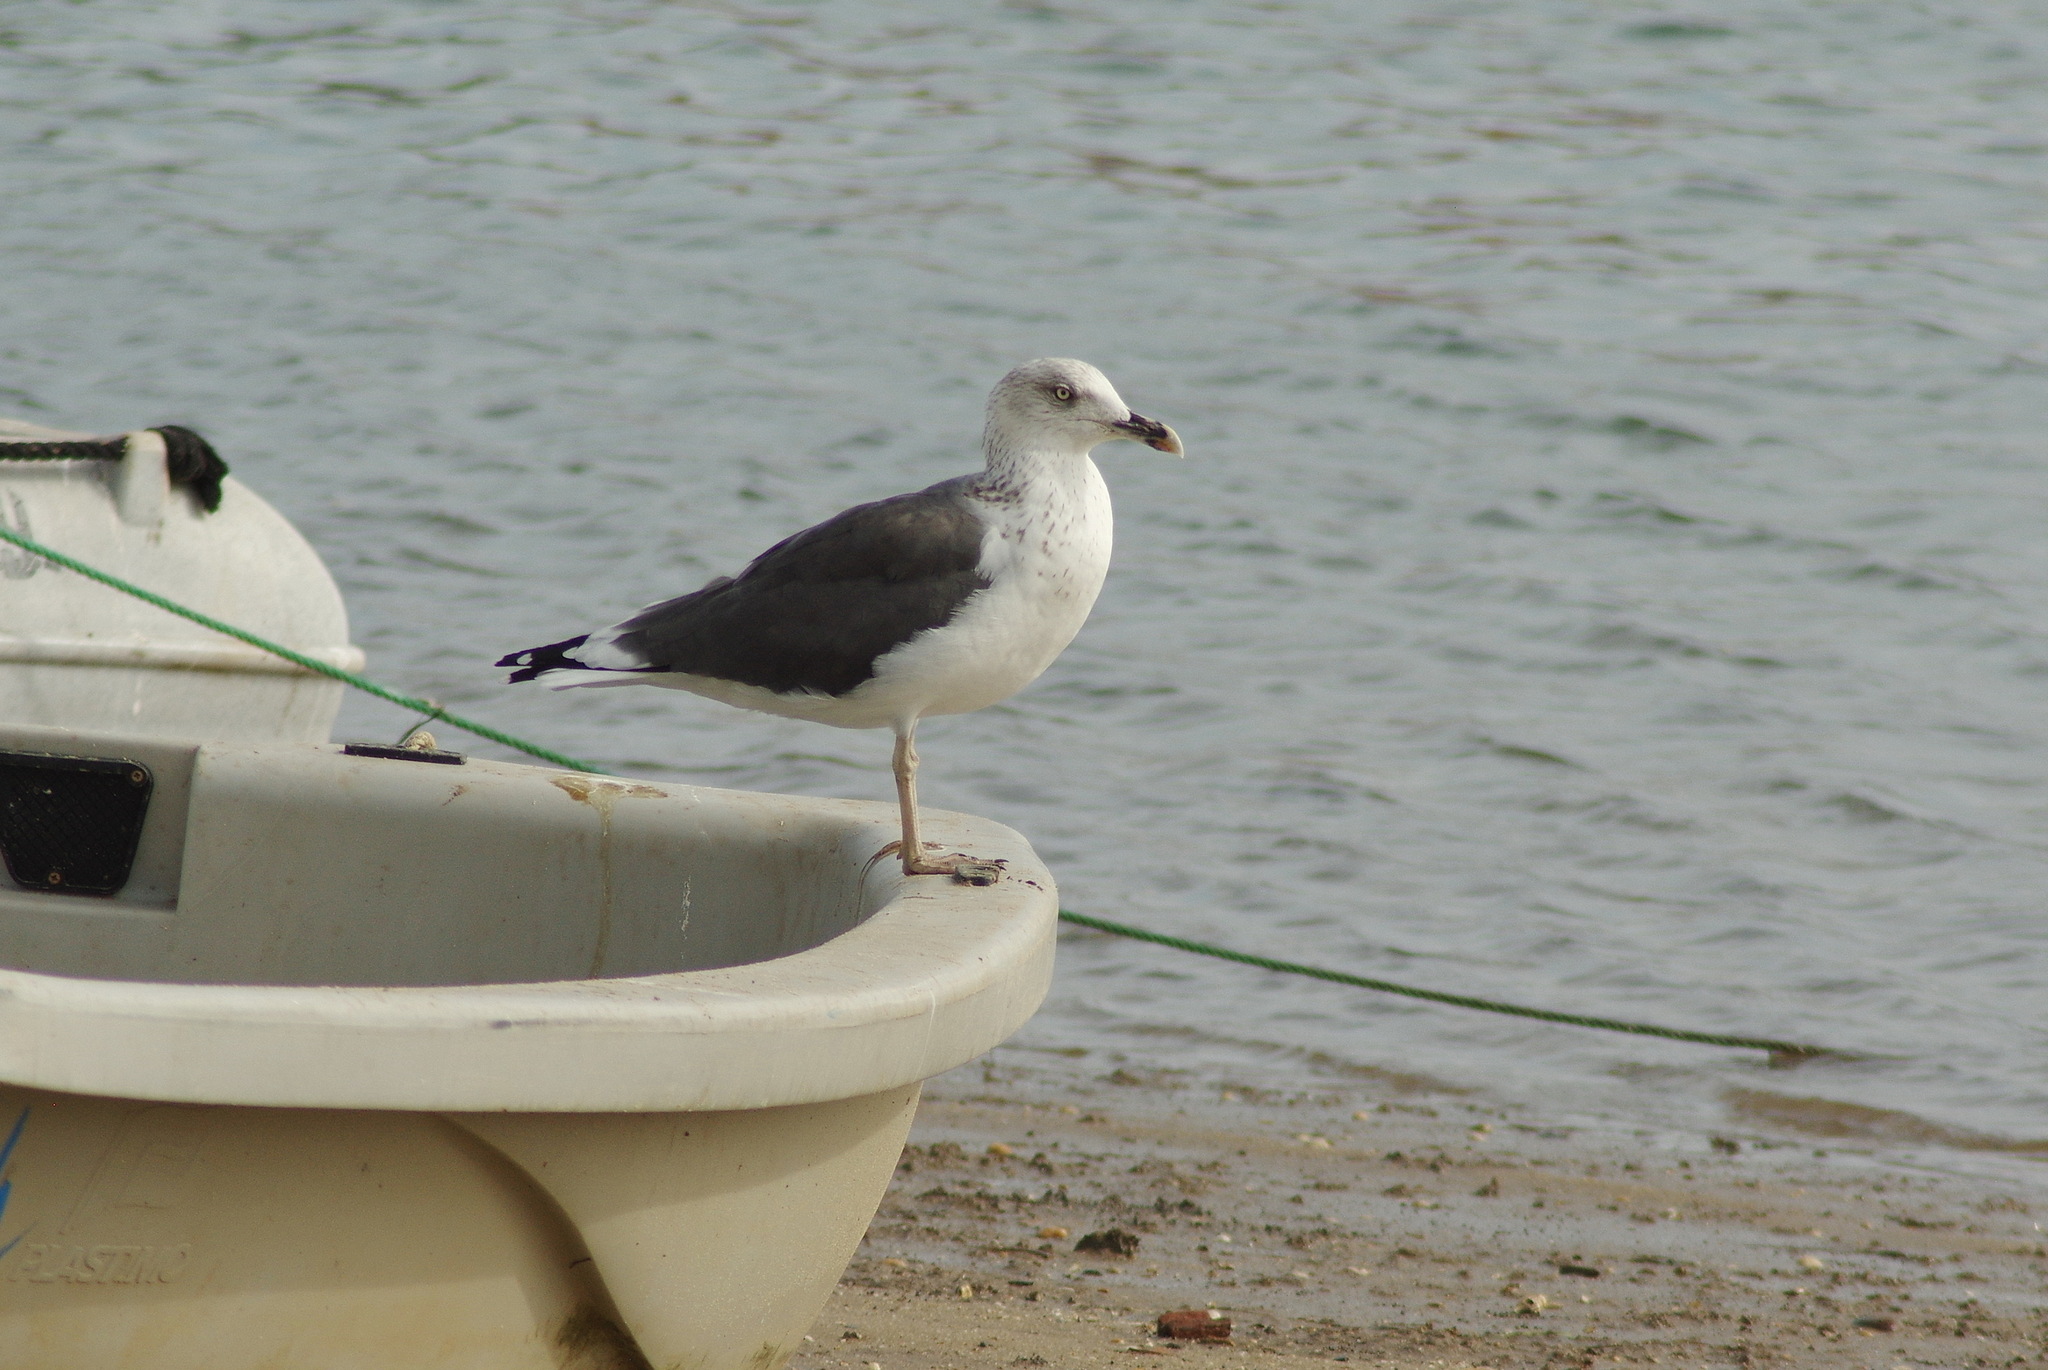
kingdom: Animalia
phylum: Chordata
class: Aves
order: Charadriiformes
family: Laridae
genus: Larus
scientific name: Larus fuscus
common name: Lesser black-backed gull
